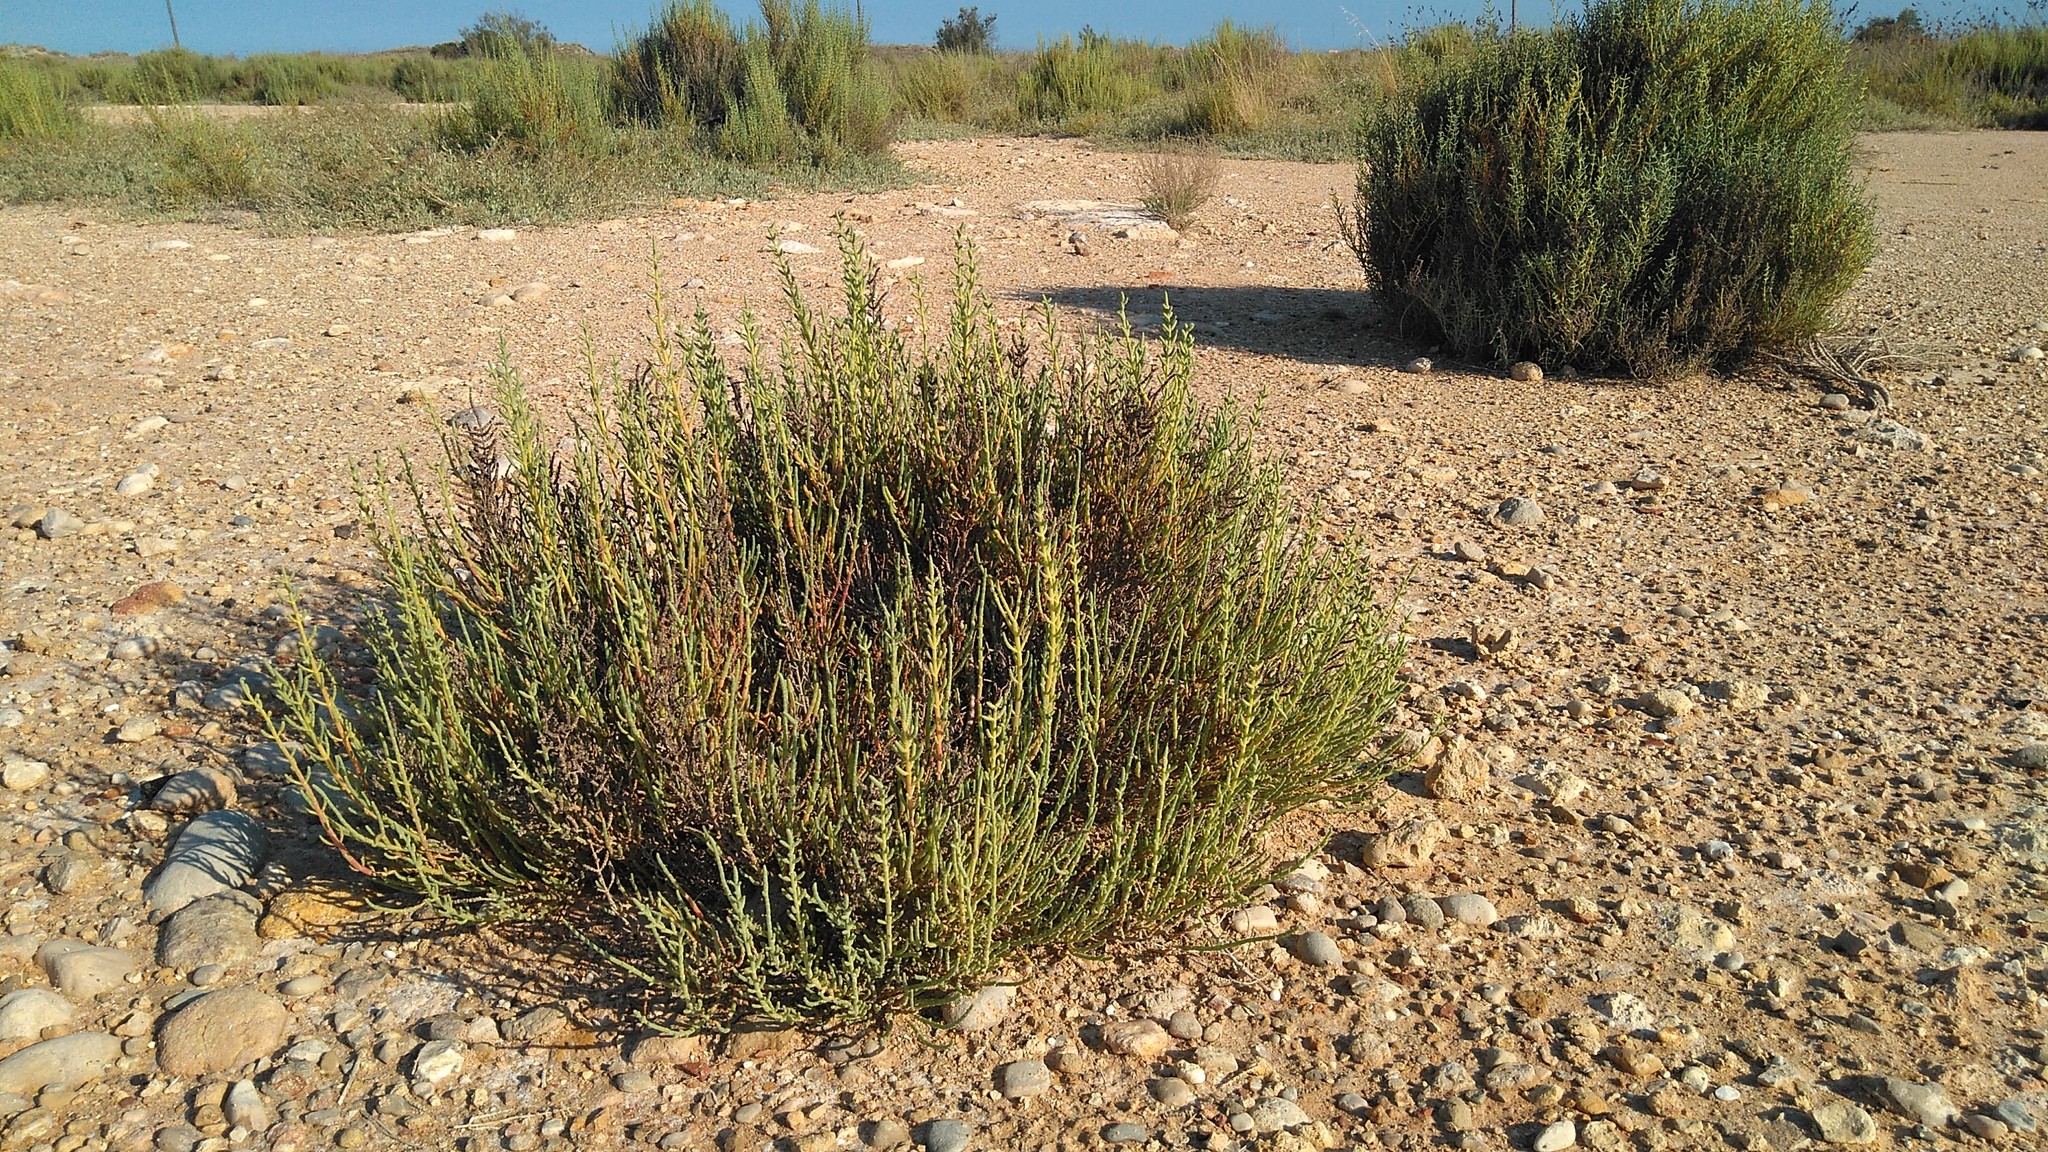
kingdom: Plantae
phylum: Tracheophyta
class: Magnoliopsida
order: Caryophyllales
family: Amaranthaceae
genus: Salicornia
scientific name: Salicornia fruticosa
